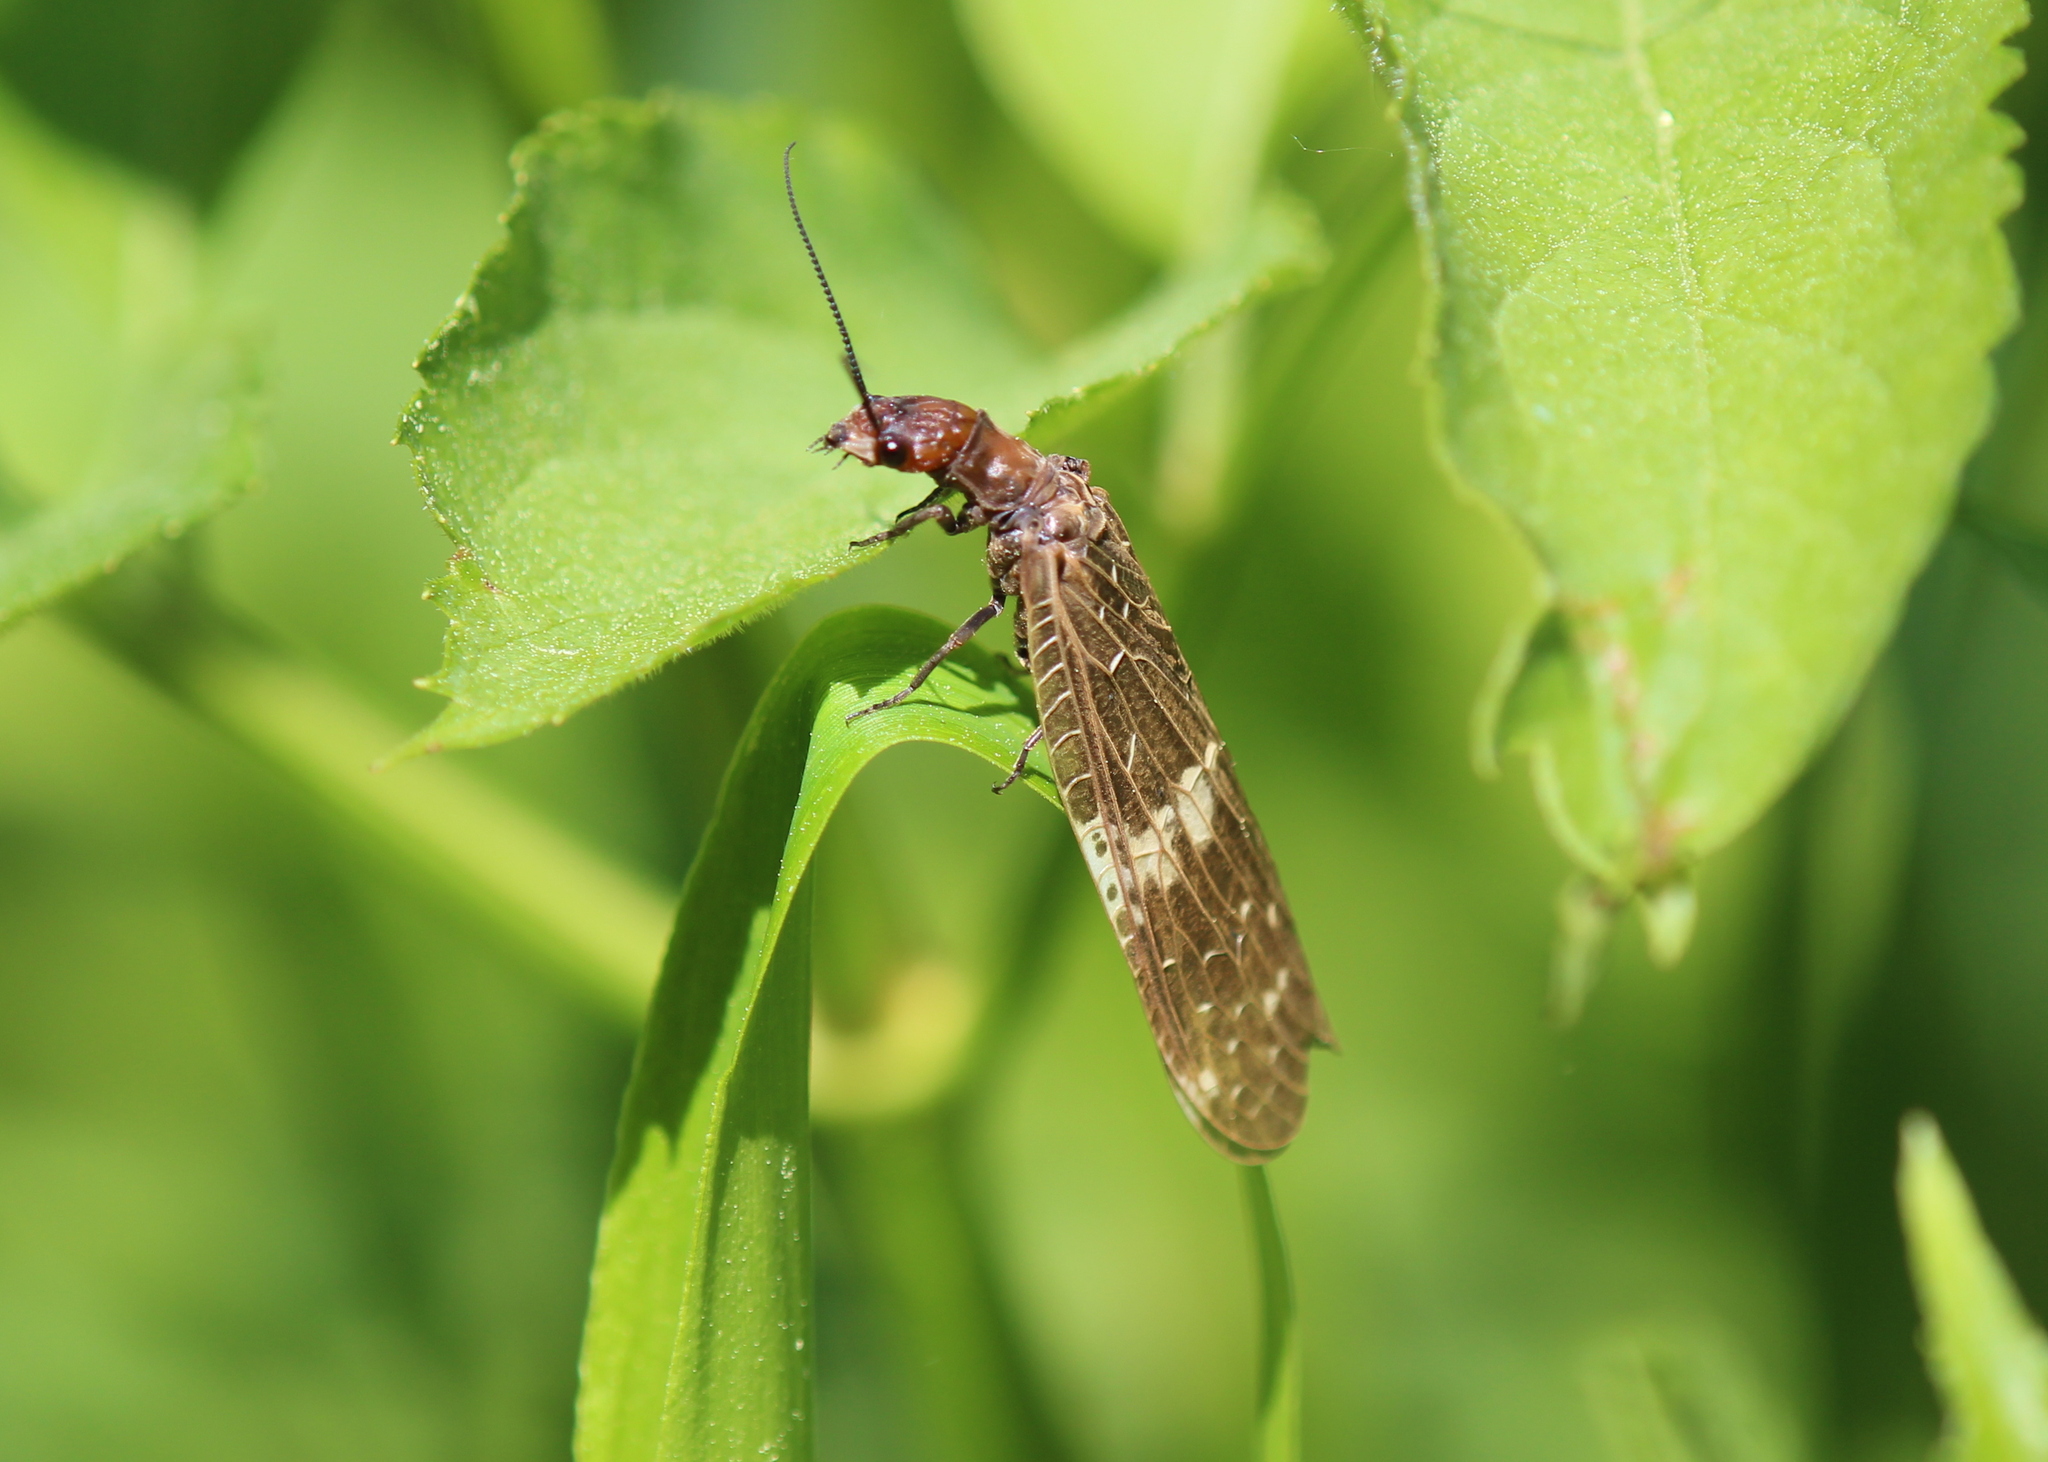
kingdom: Animalia
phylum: Arthropoda
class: Insecta
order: Megaloptera
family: Corydalidae
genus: Nigronia
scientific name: Nigronia serricornis
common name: Serrate dark fishfly
